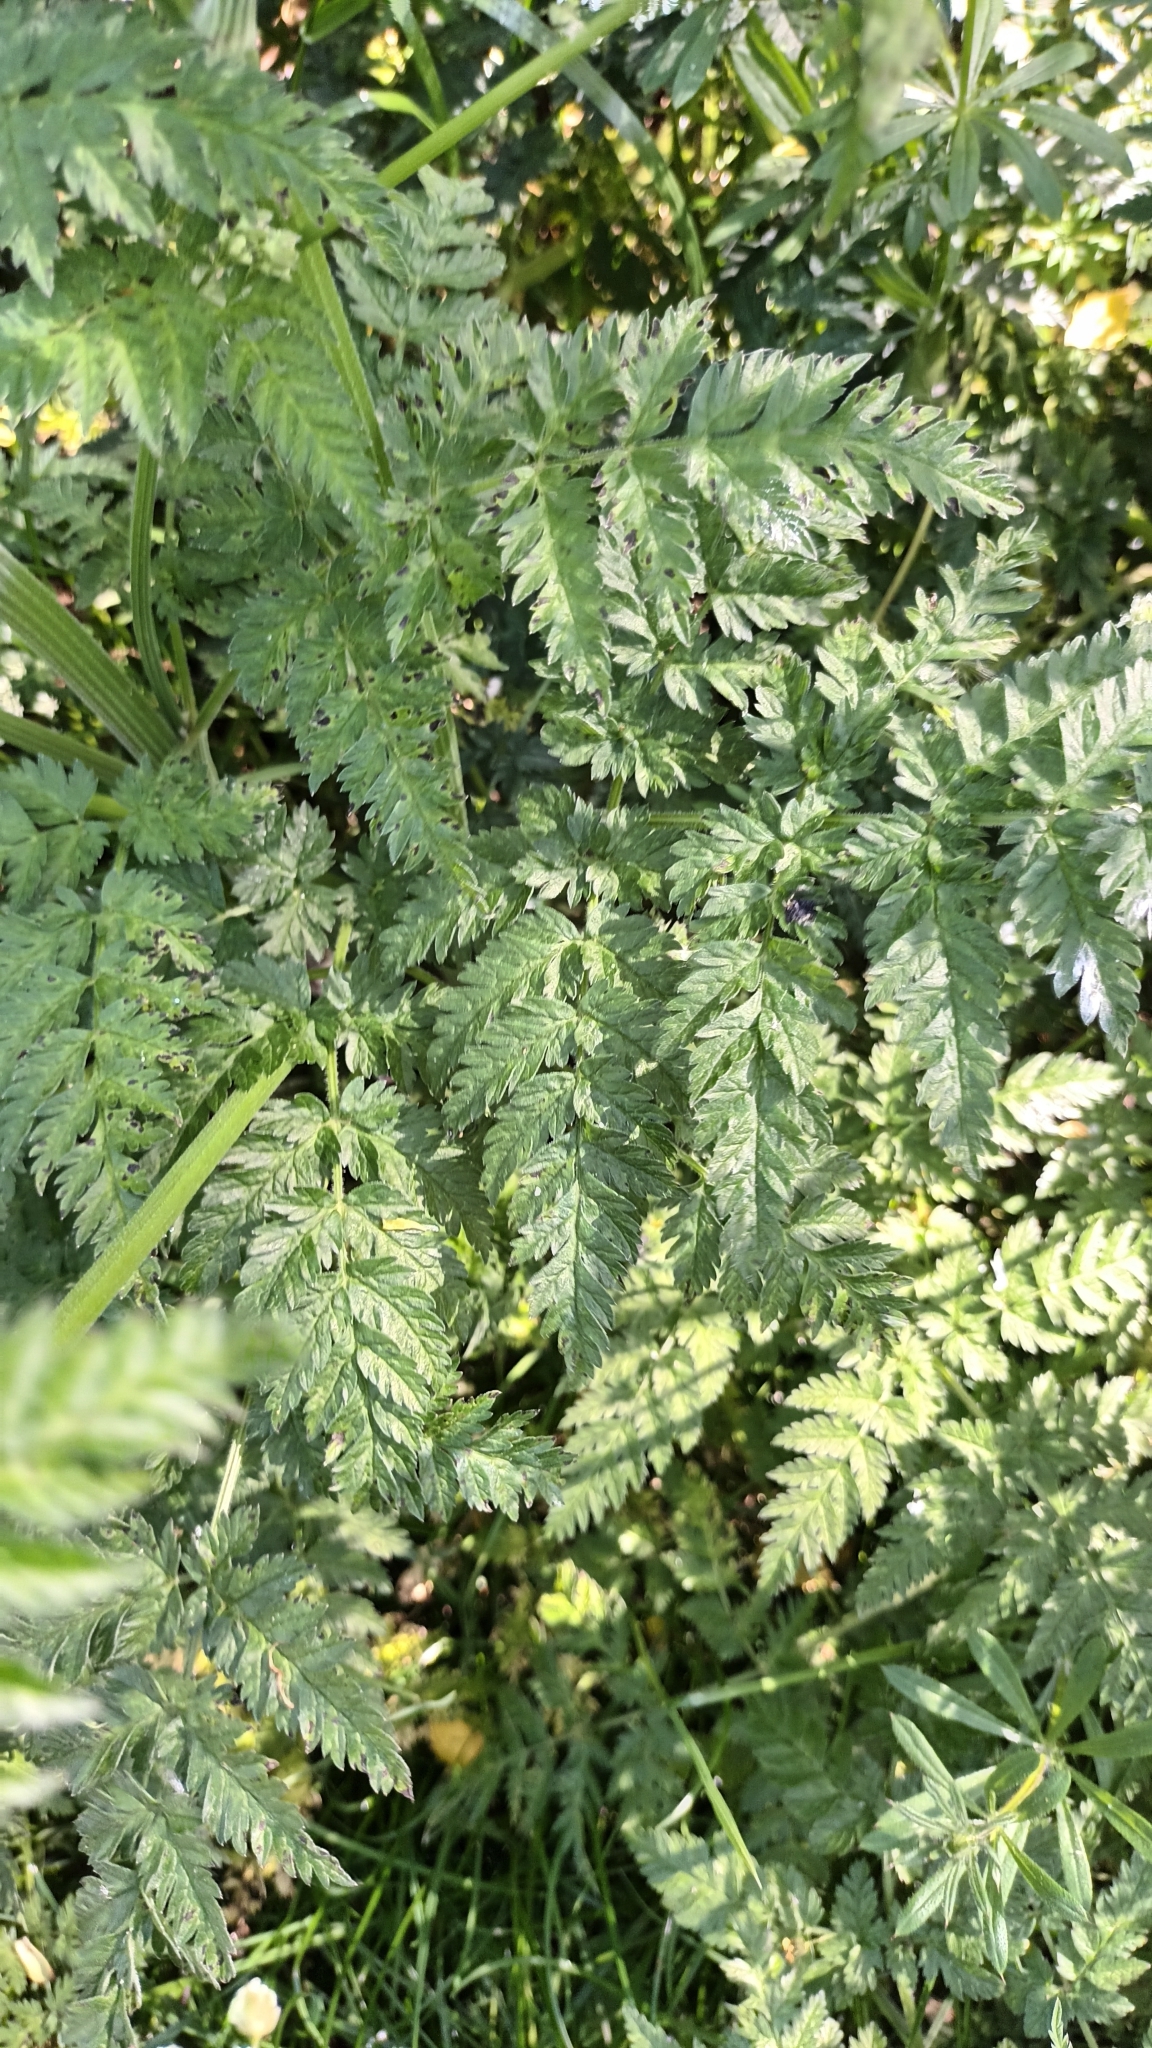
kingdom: Plantae
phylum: Tracheophyta
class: Magnoliopsida
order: Apiales
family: Apiaceae
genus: Anthriscus
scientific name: Anthriscus sylvestris
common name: Cow parsley
